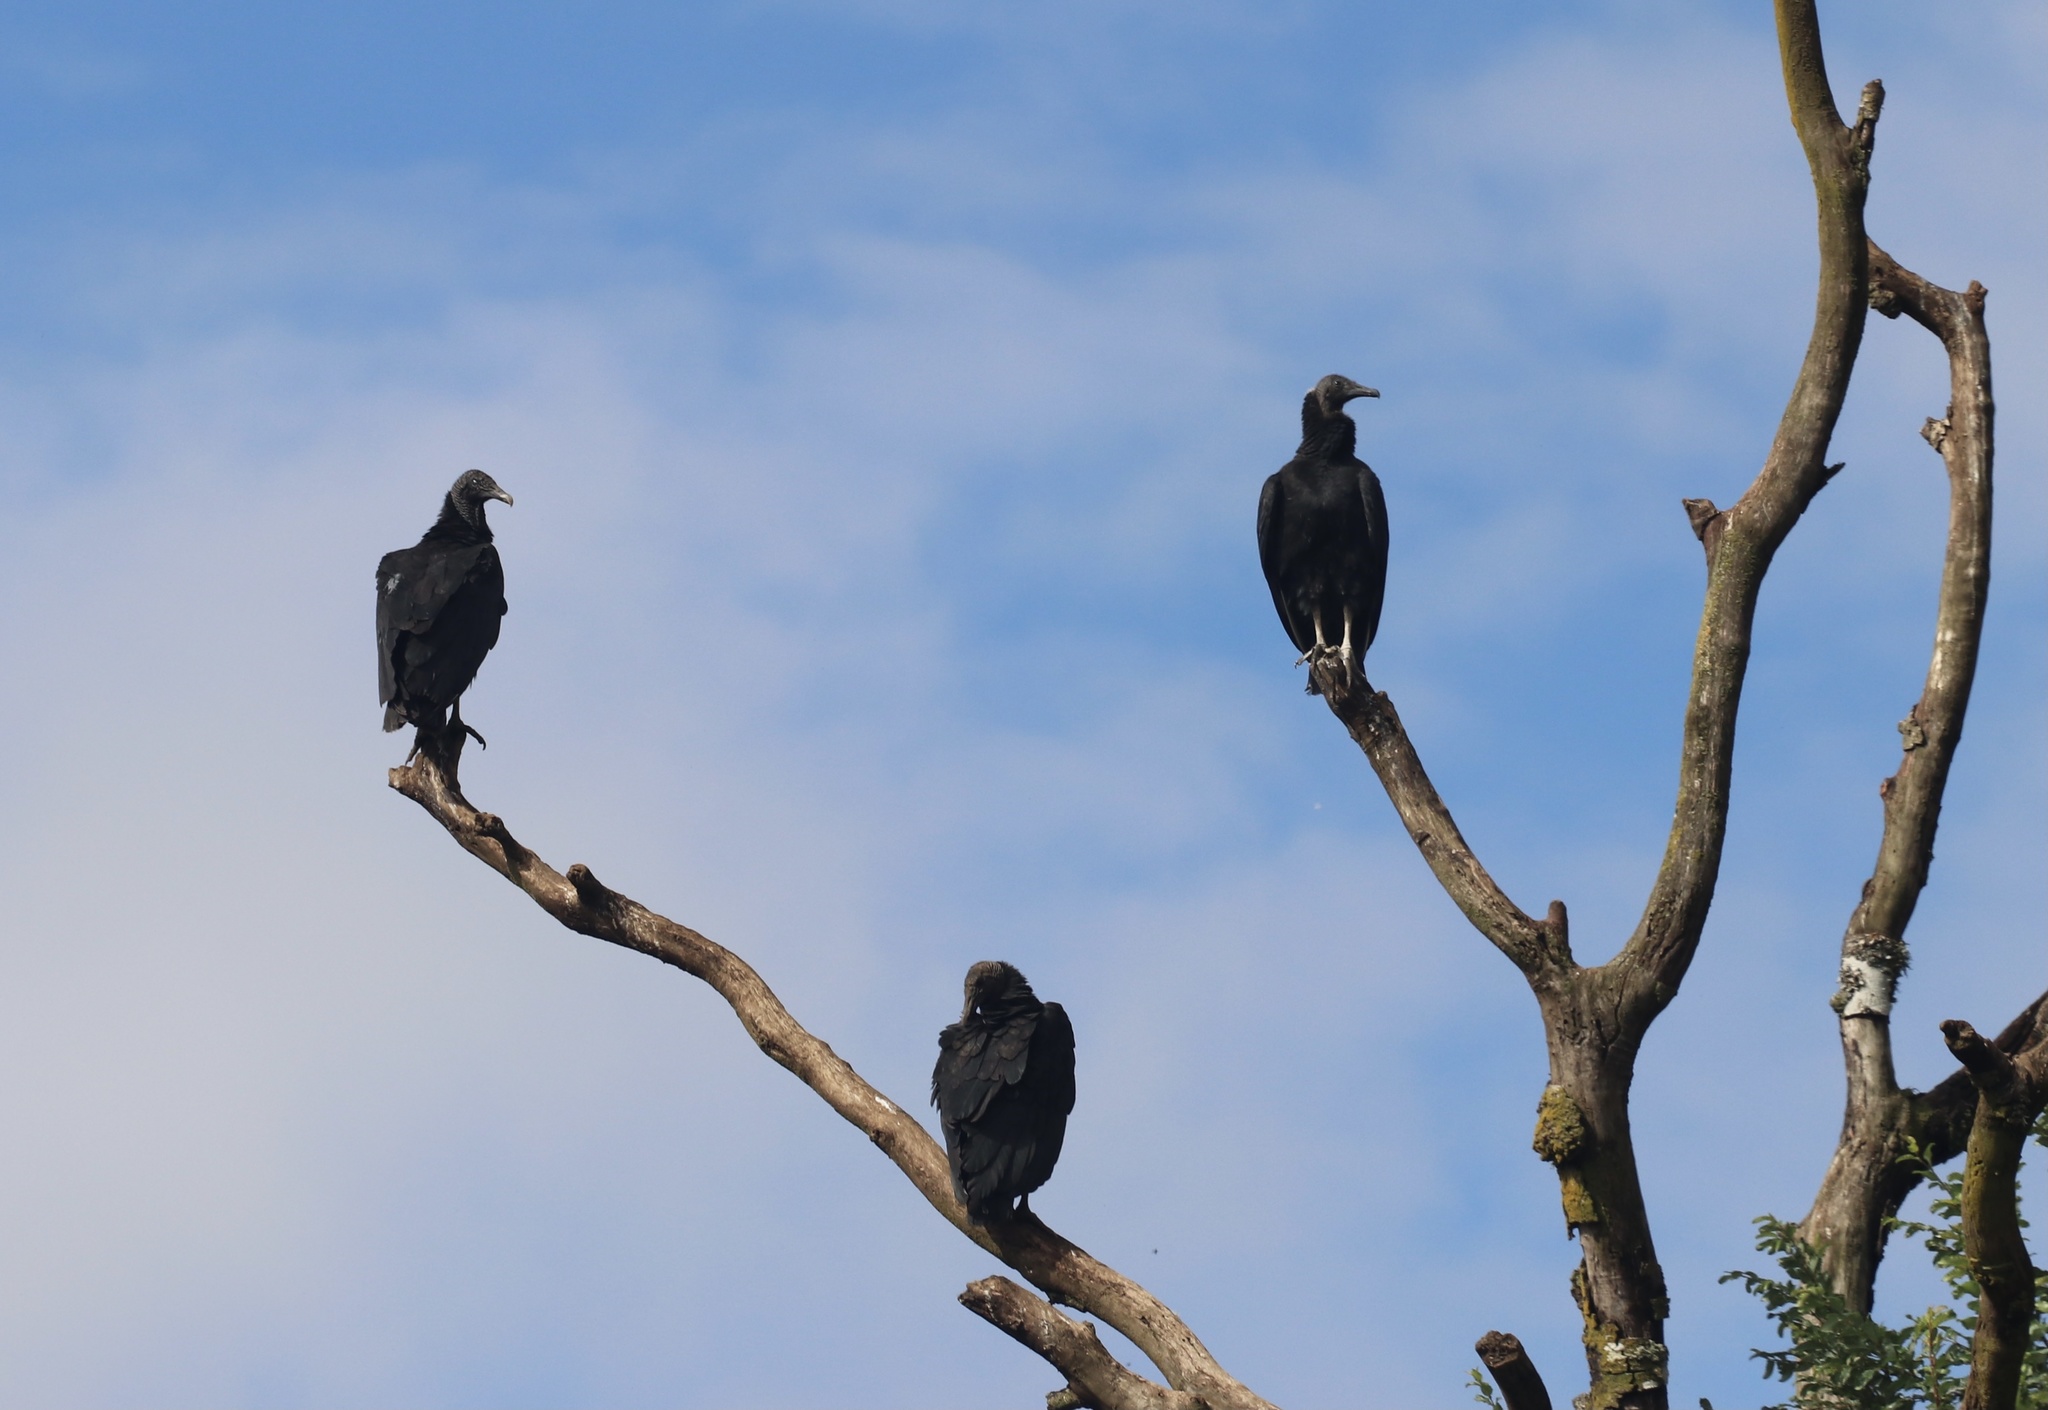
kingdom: Animalia
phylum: Chordata
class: Aves
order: Accipitriformes
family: Cathartidae
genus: Coragyps
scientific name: Coragyps atratus
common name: Black vulture
